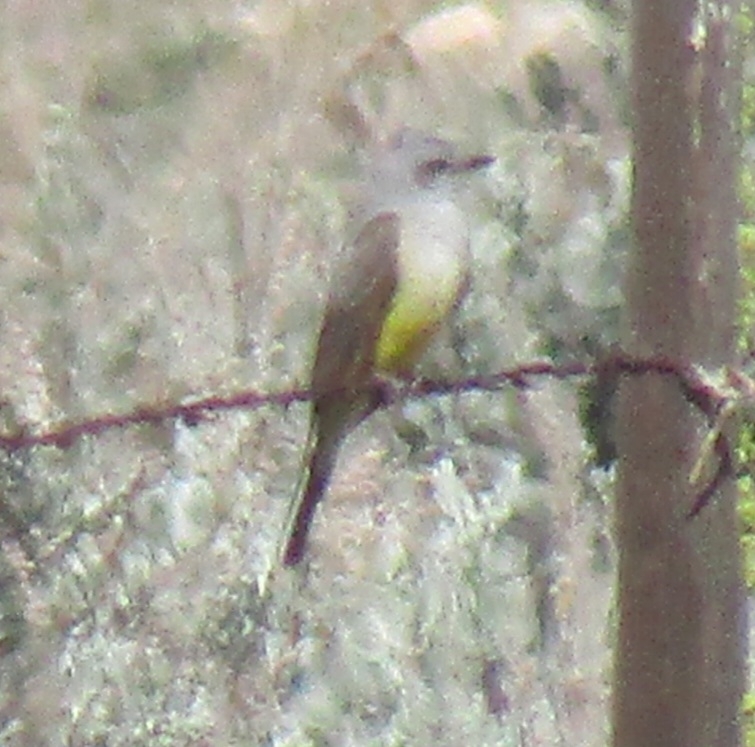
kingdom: Animalia
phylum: Chordata
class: Aves
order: Passeriformes
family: Tyrannidae
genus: Tyrannus
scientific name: Tyrannus verticalis
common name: Western kingbird
